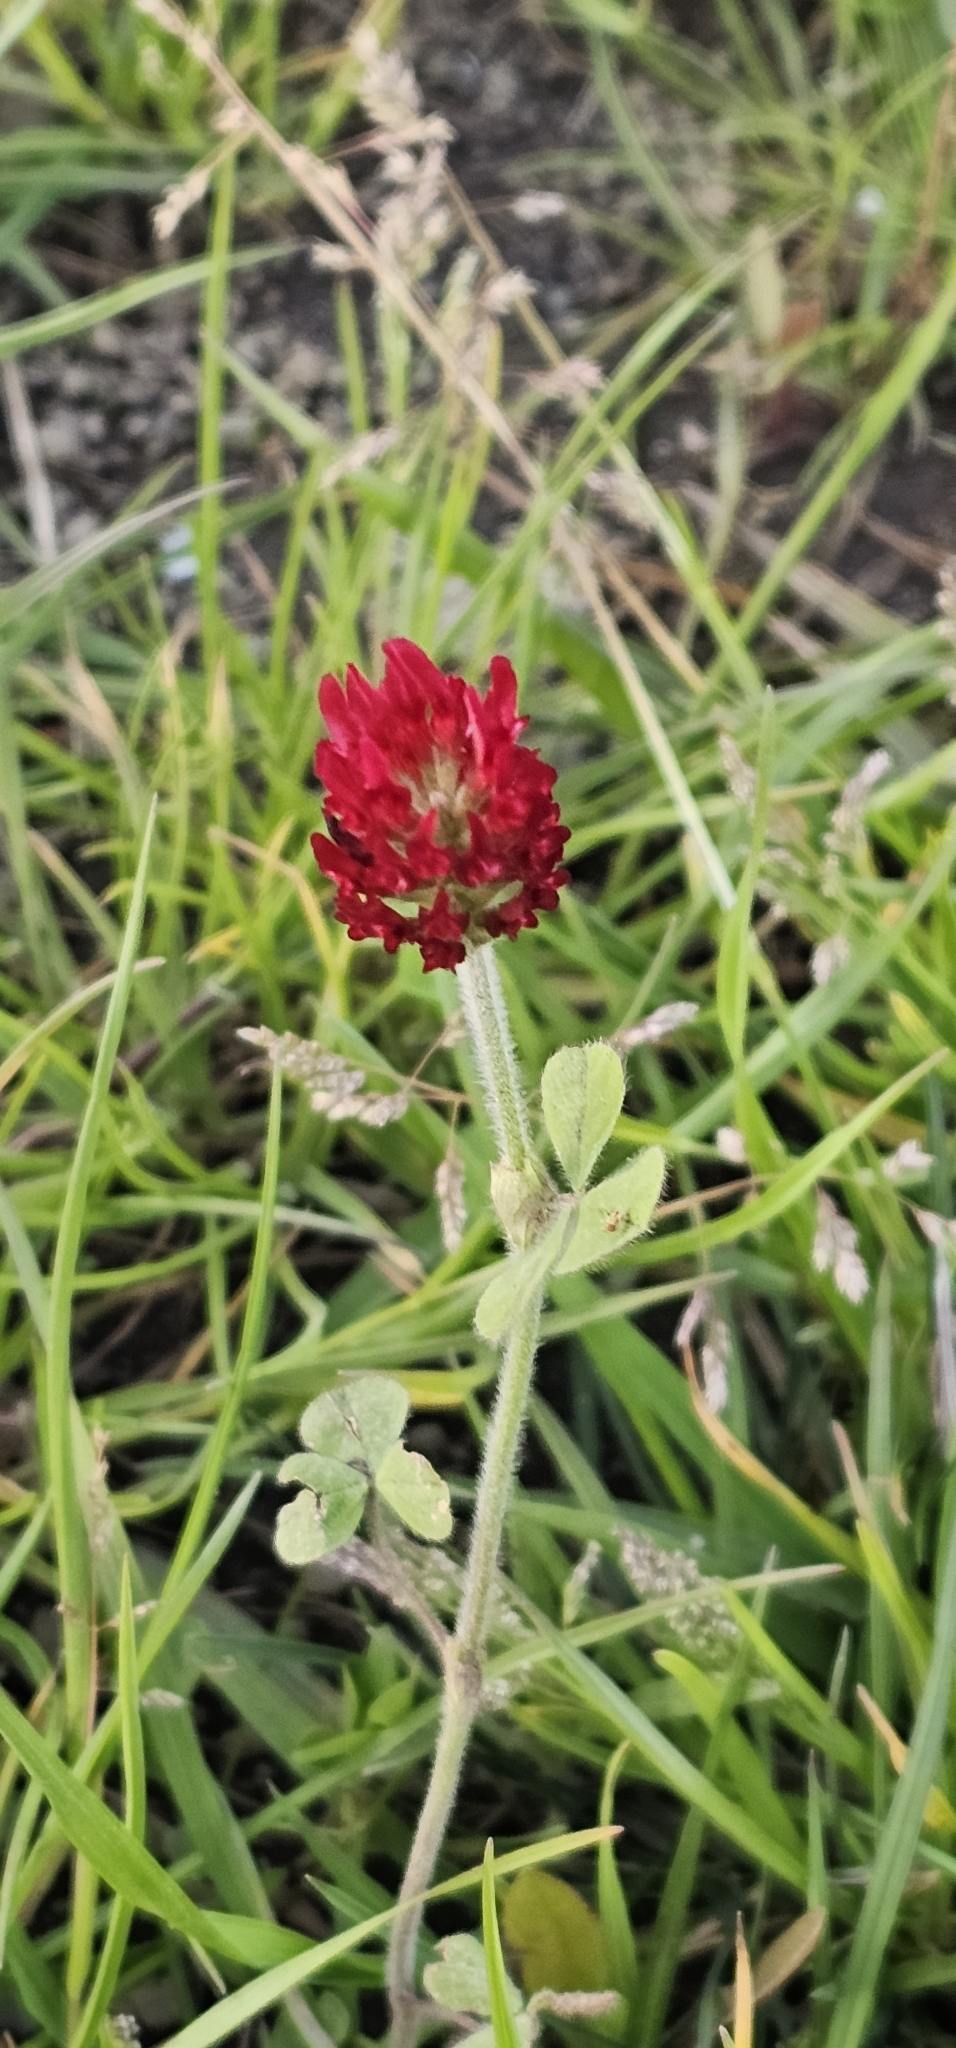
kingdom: Plantae
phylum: Tracheophyta
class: Magnoliopsida
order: Fabales
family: Fabaceae
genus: Trifolium
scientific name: Trifolium incarnatum
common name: Crimson clover
